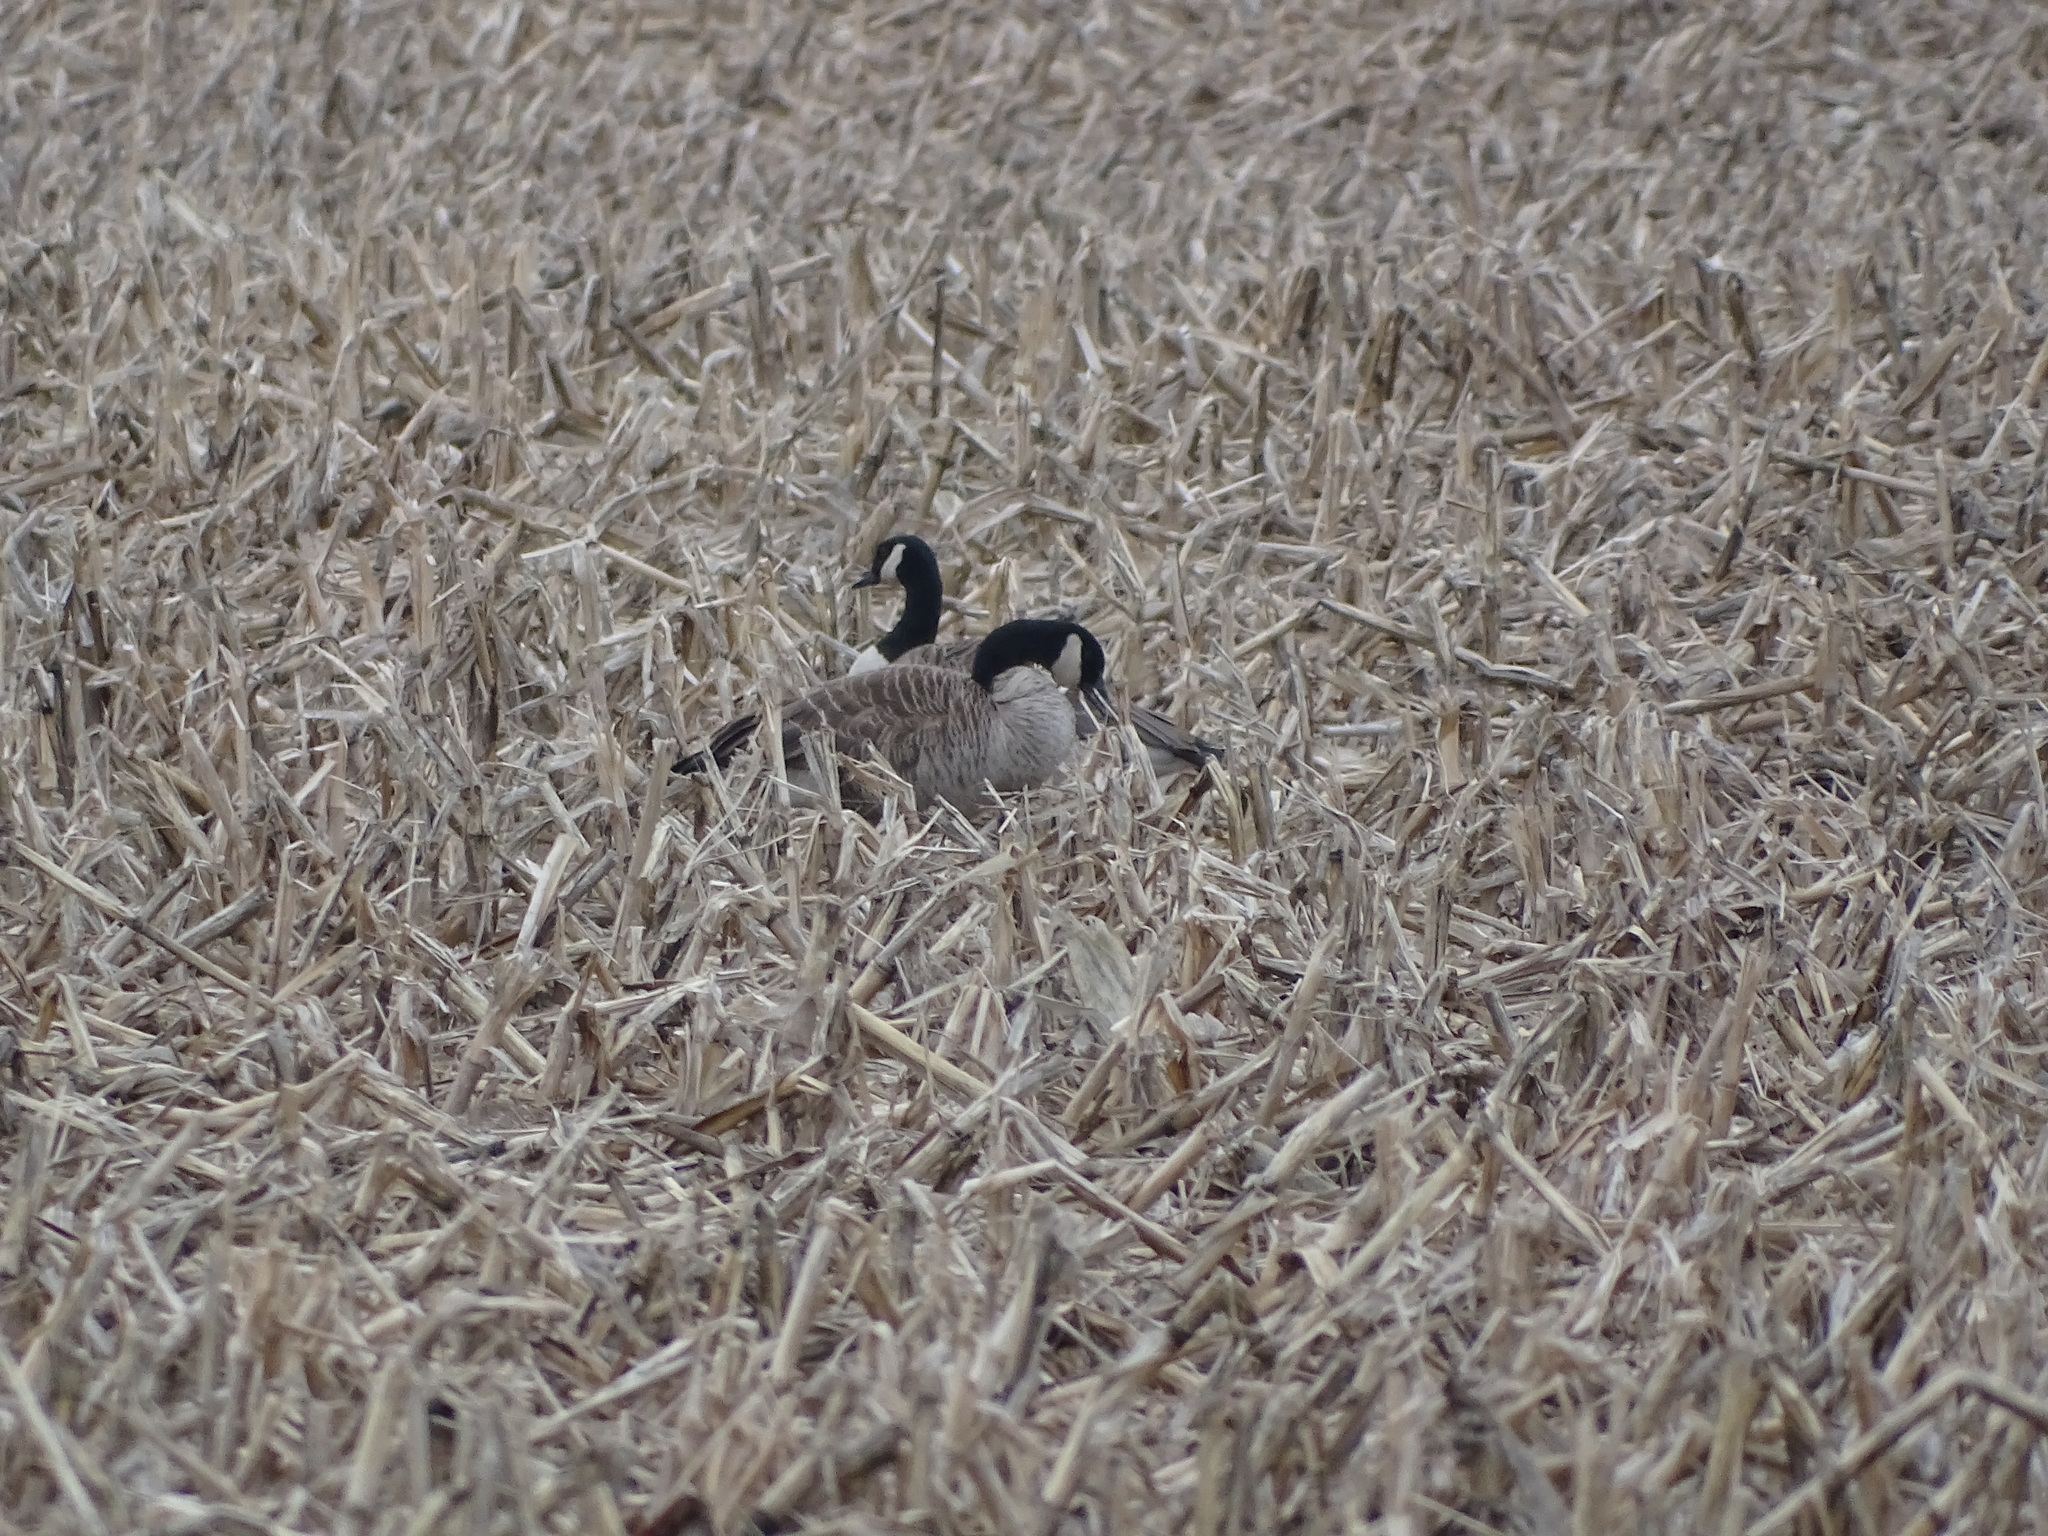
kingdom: Animalia
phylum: Chordata
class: Aves
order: Anseriformes
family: Anatidae
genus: Branta
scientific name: Branta canadensis
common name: Canada goose
